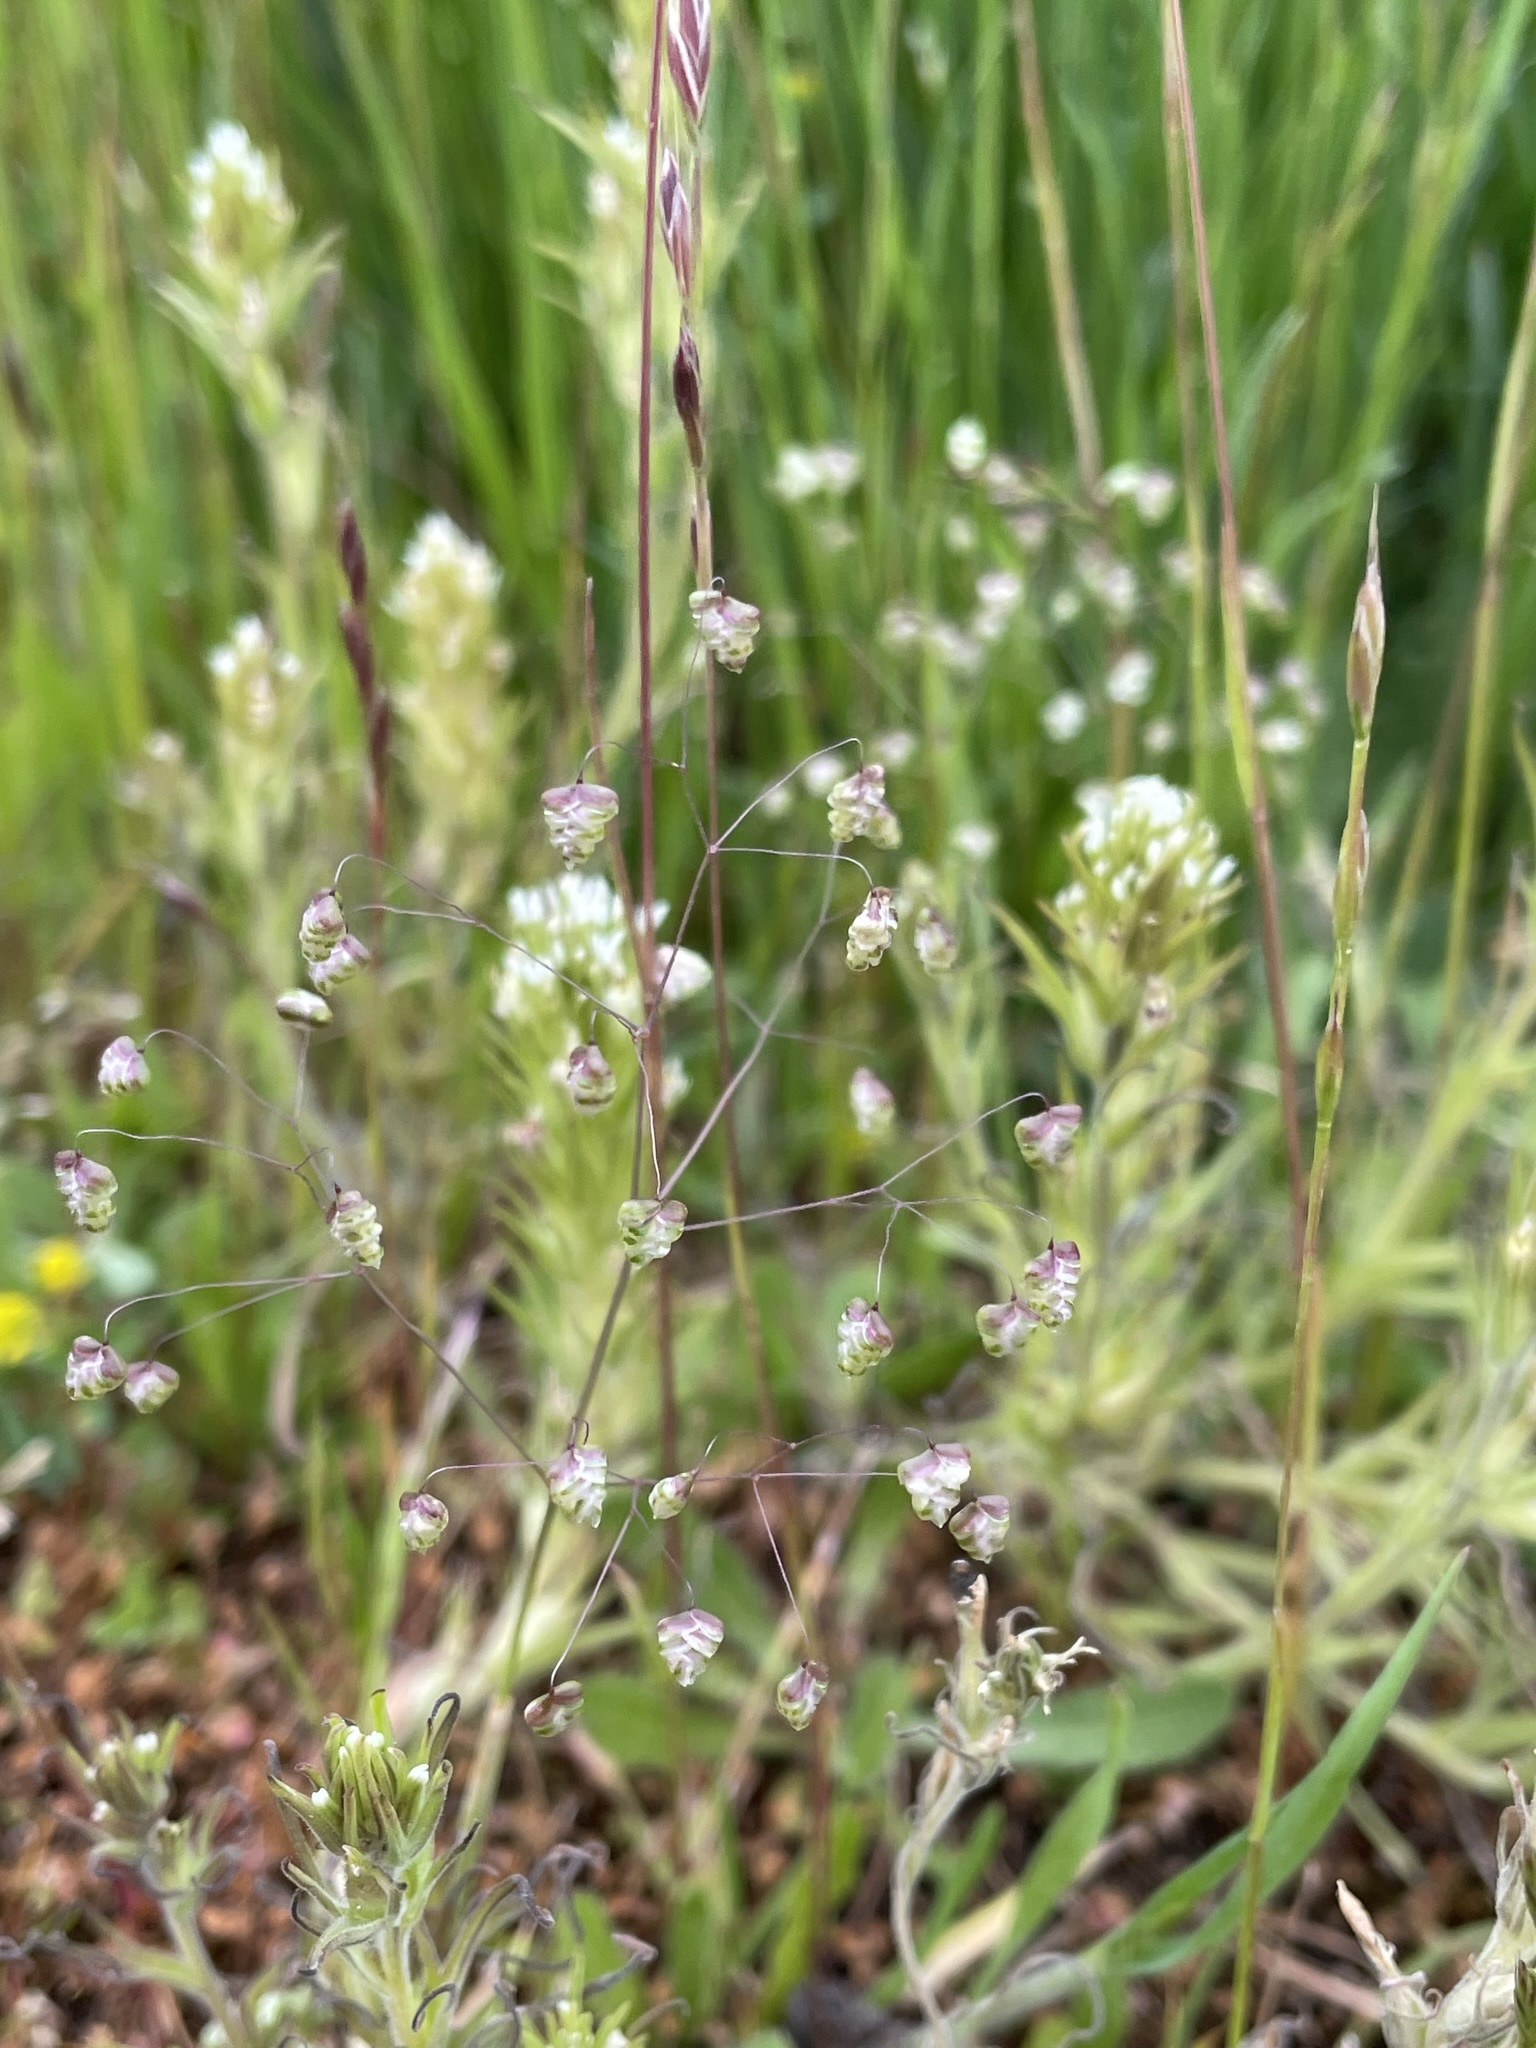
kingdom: Plantae
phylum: Tracheophyta
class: Liliopsida
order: Poales
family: Poaceae
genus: Briza
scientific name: Briza minor
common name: Lesser quaking-grass
